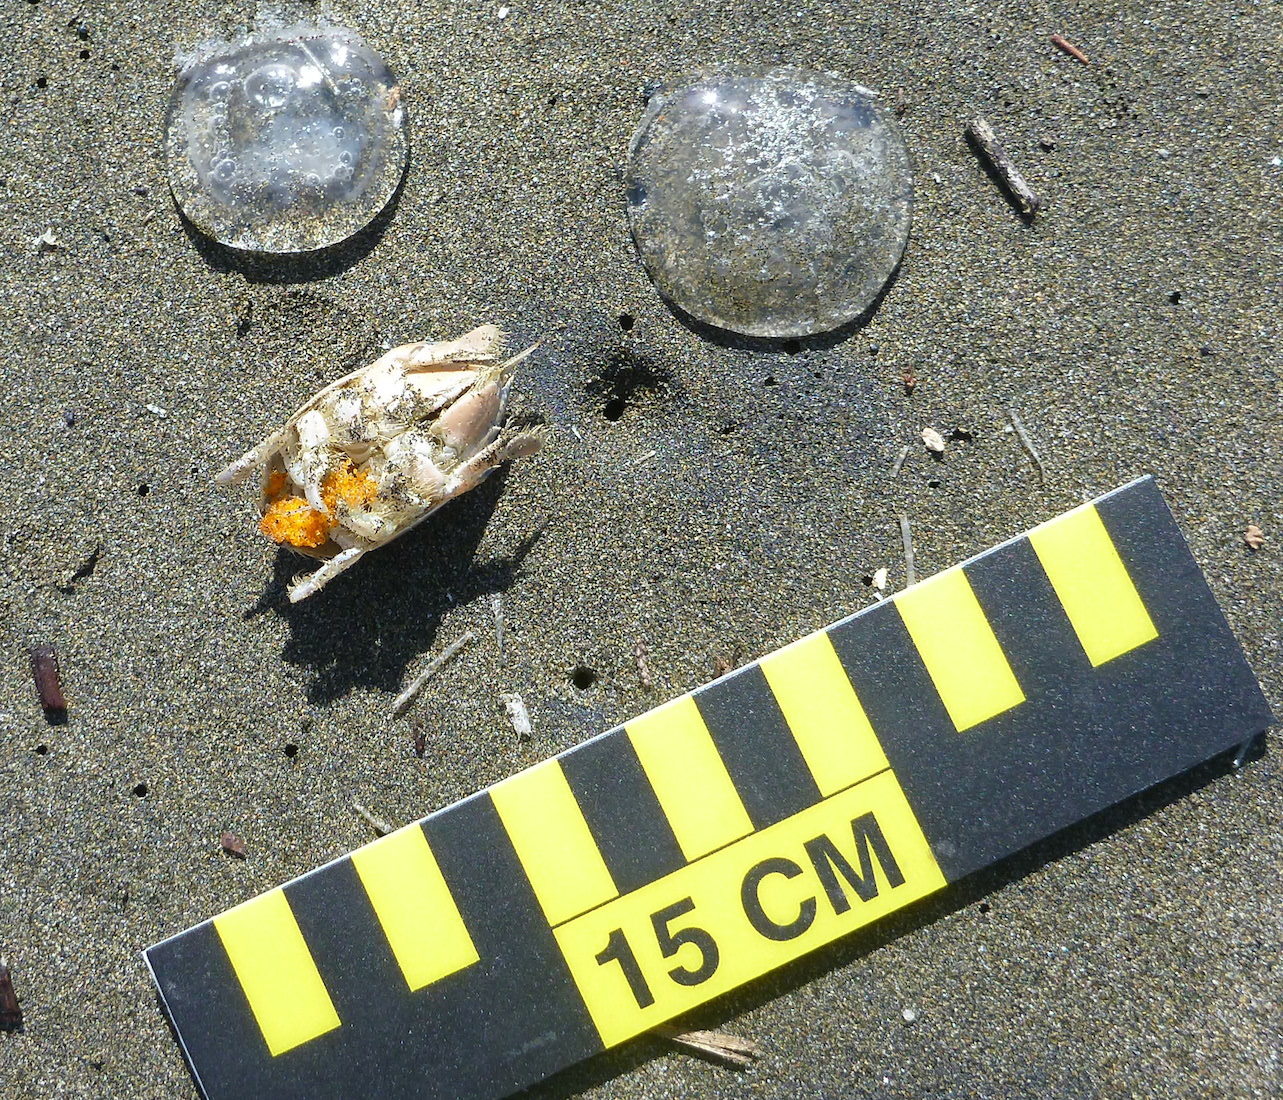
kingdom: Animalia
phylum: Arthropoda
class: Malacostraca
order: Decapoda
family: Hippidae
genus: Emerita
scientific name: Emerita analoga
